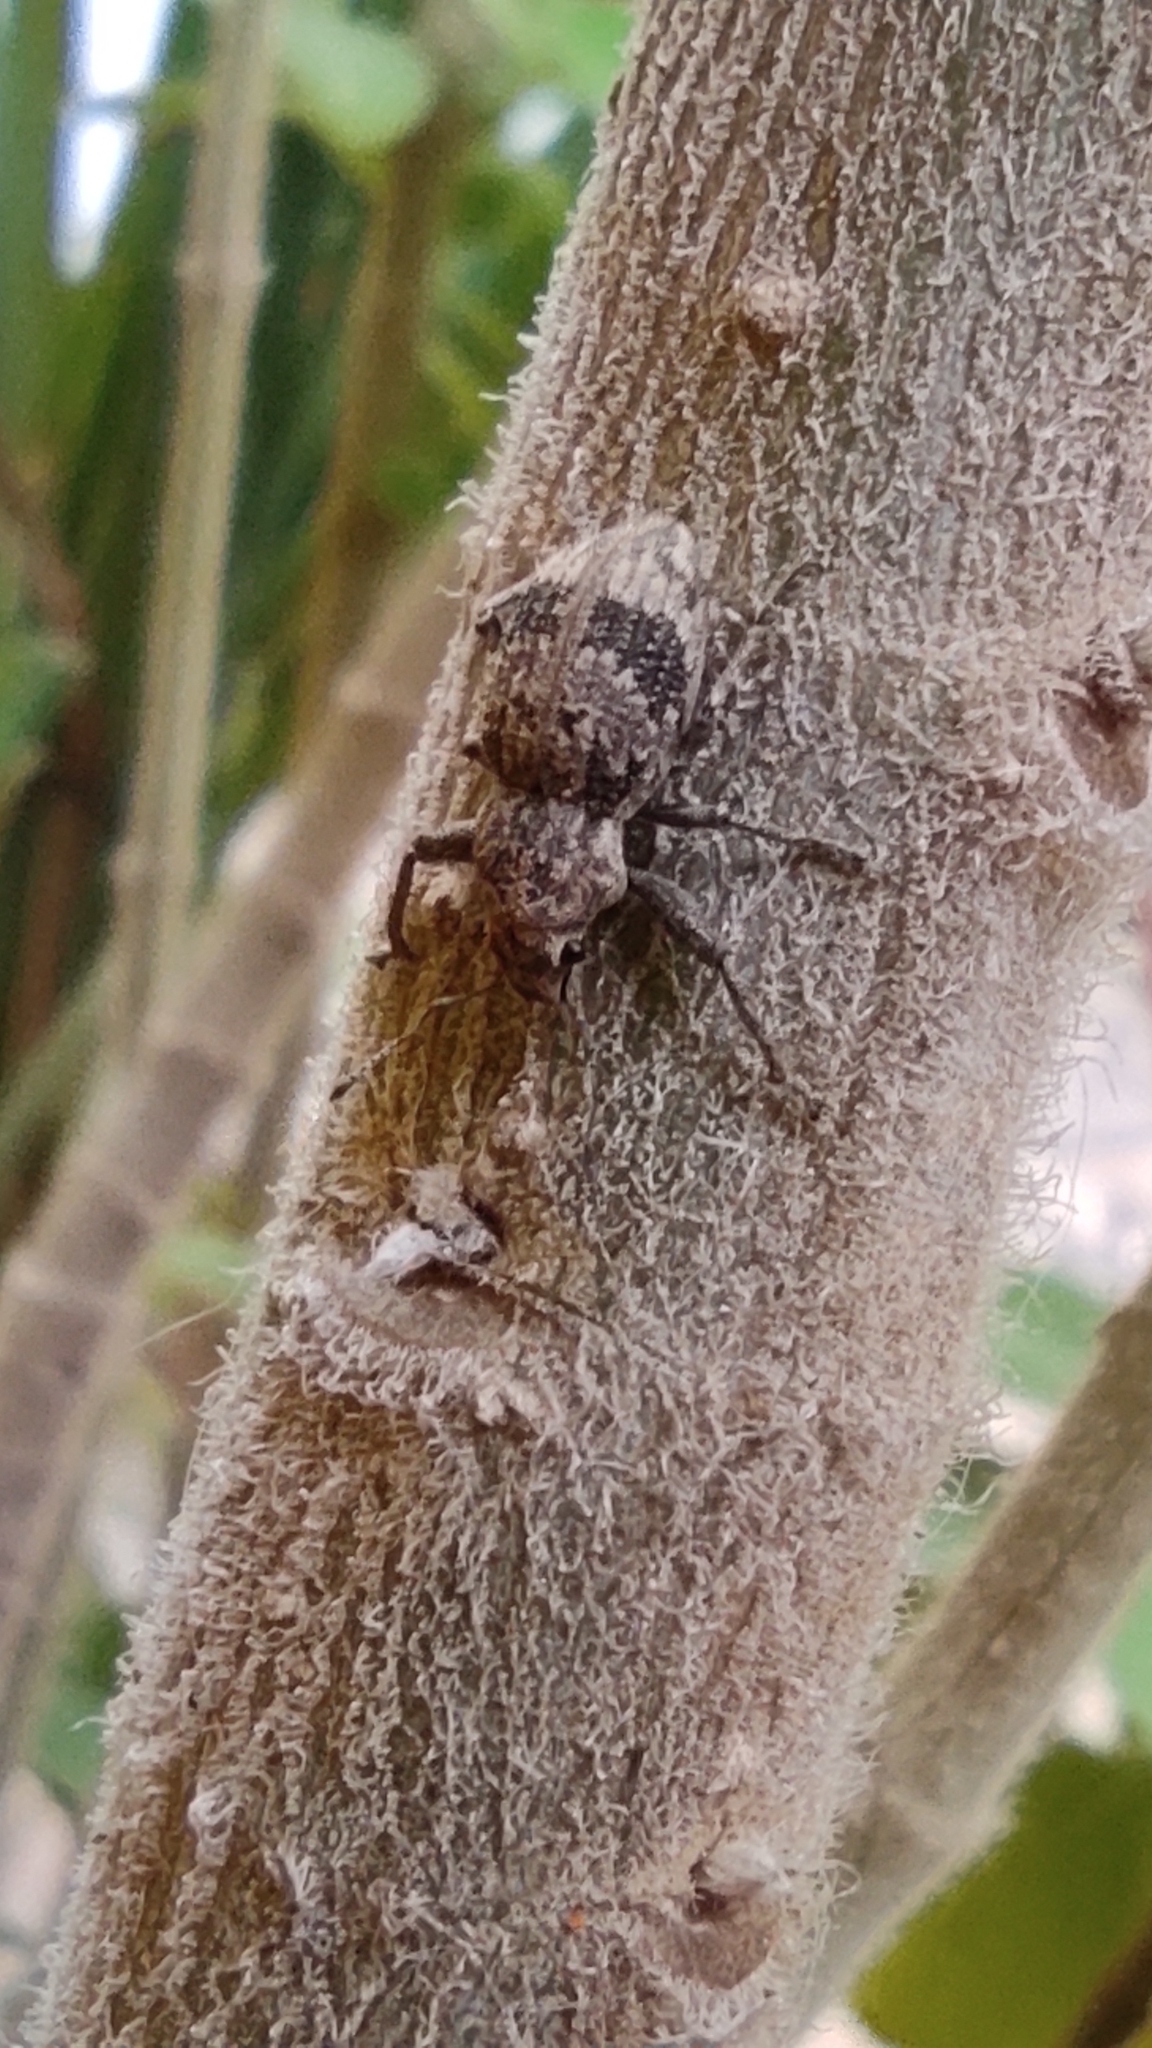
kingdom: Animalia
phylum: Arthropoda
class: Insecta
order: Coleoptera
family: Curculionidae
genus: Pantomorus
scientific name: Pantomorus
